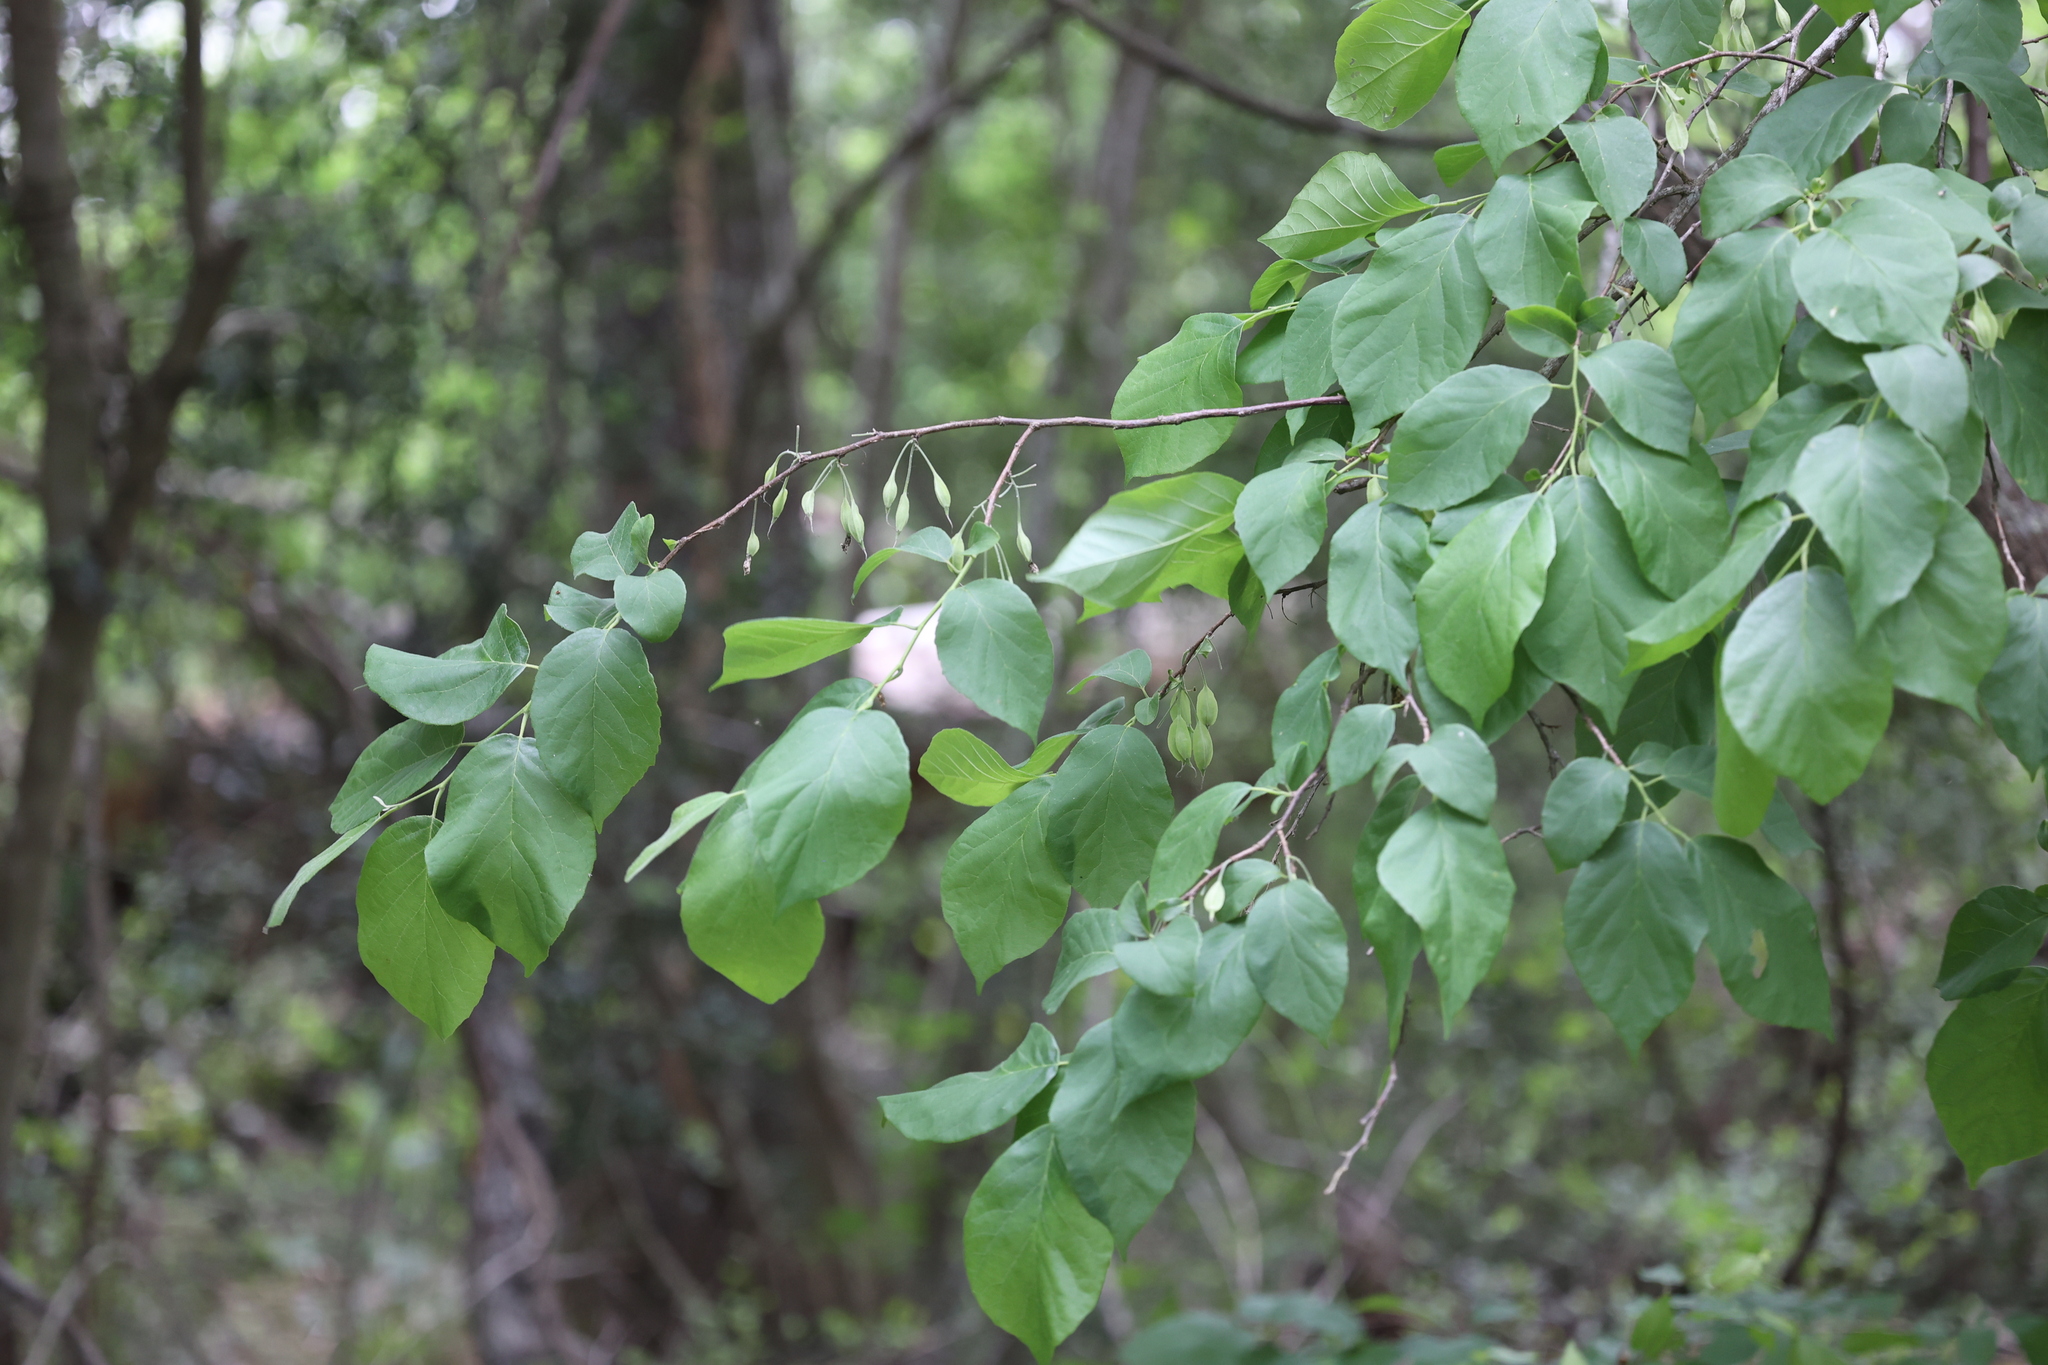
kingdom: Plantae
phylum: Tracheophyta
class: Magnoliopsida
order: Ericales
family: Styracaceae
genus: Halesia
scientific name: Halesia diptera
